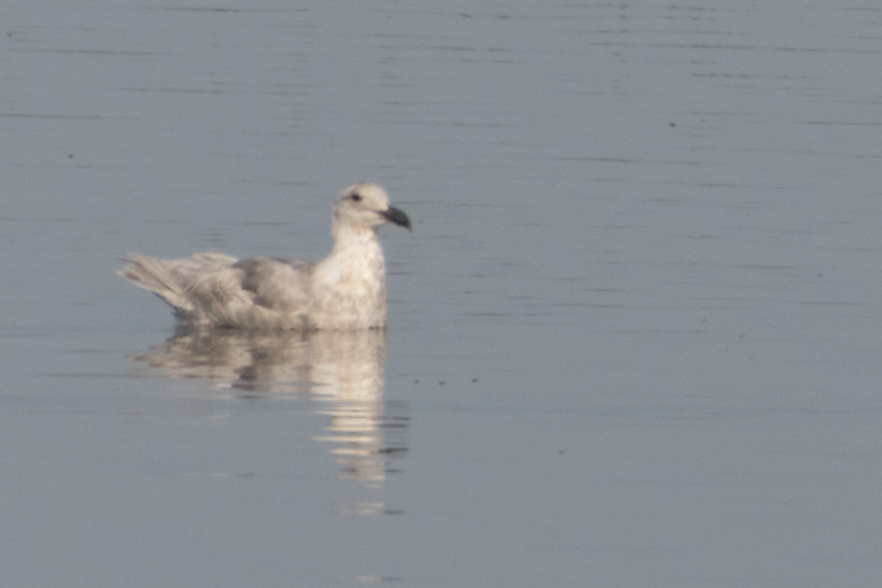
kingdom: Animalia
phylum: Chordata
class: Aves
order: Charadriiformes
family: Laridae
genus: Larus
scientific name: Larus glaucescens
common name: Glaucous-winged gull
